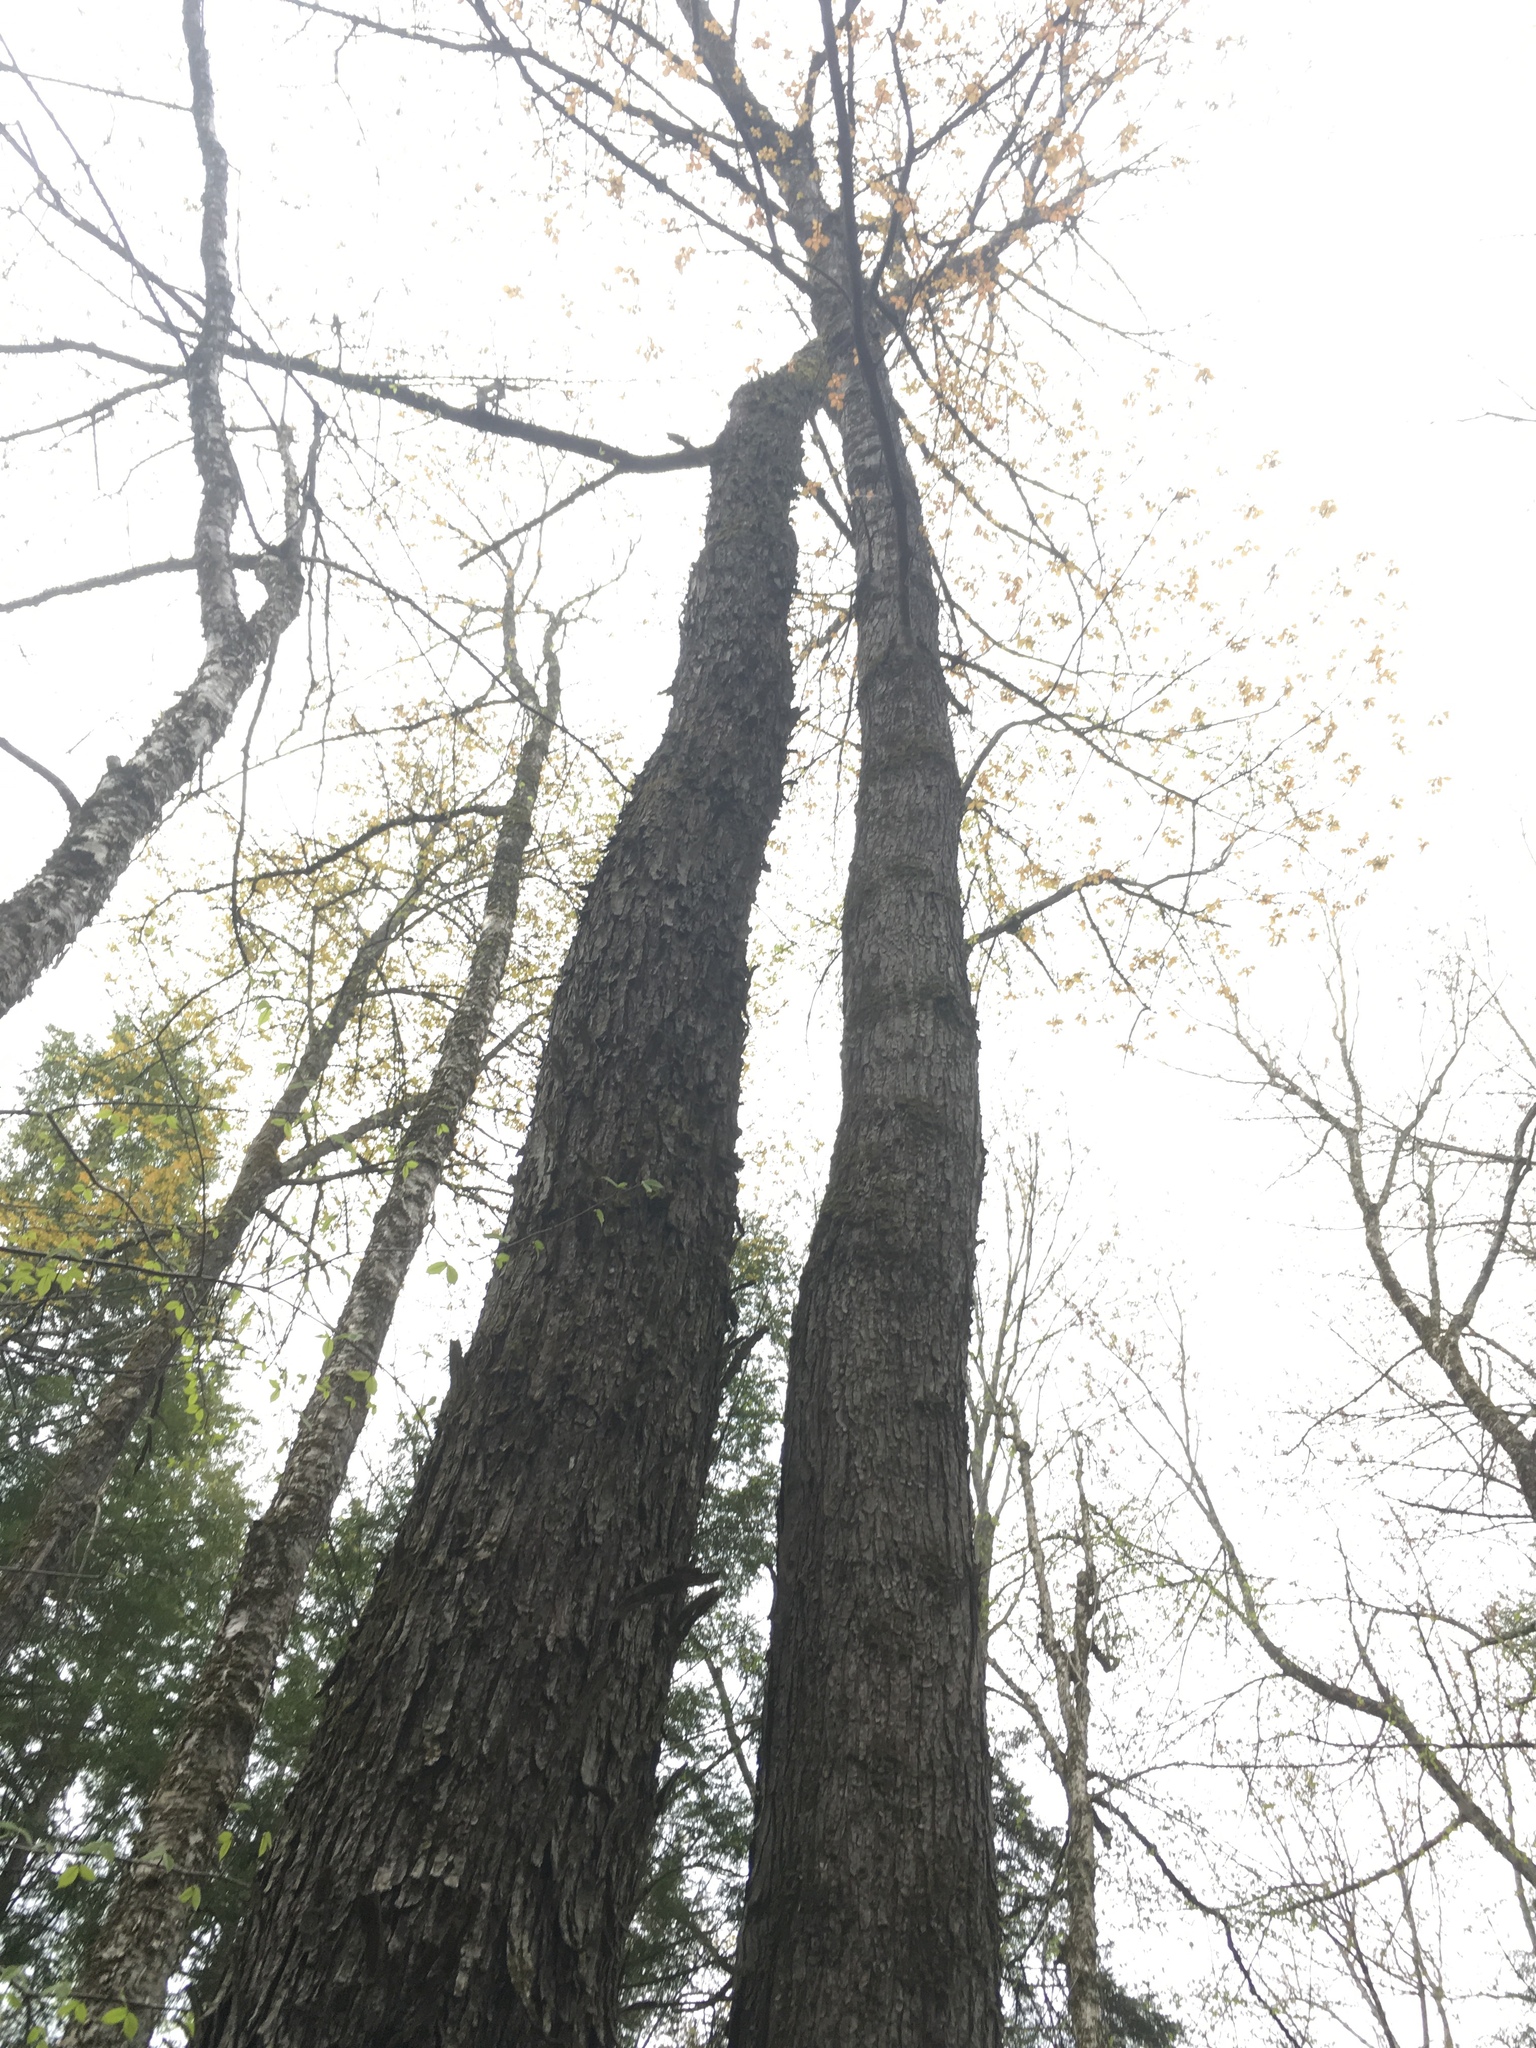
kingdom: Plantae
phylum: Tracheophyta
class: Magnoliopsida
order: Sapindales
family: Sapindaceae
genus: Acer
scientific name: Acer rubrum
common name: Red maple
